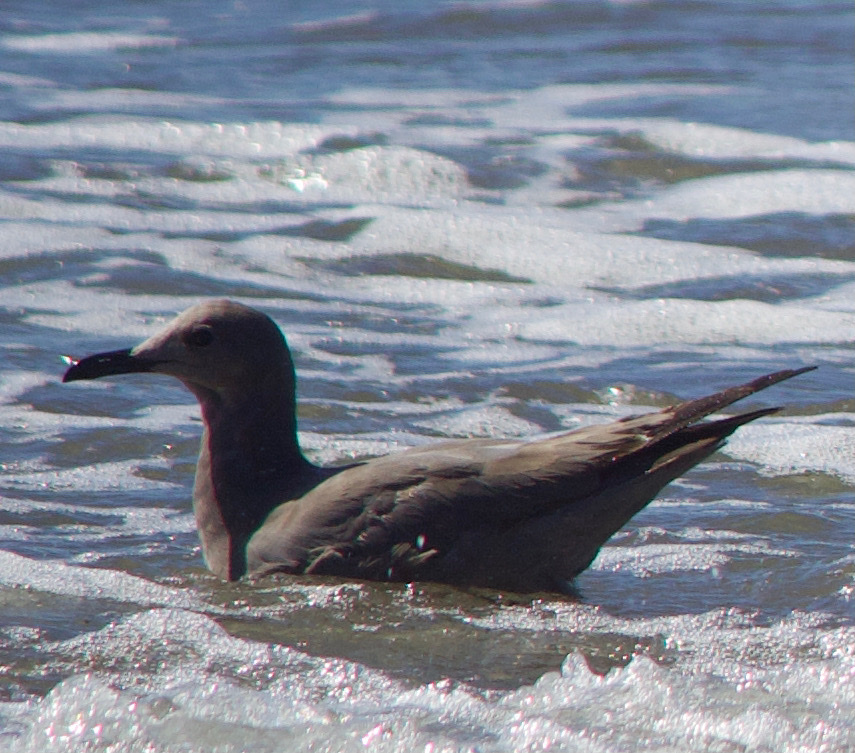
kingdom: Animalia
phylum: Chordata
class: Aves
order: Charadriiformes
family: Laridae
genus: Leucophaeus
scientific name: Leucophaeus modestus
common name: Gray gull
